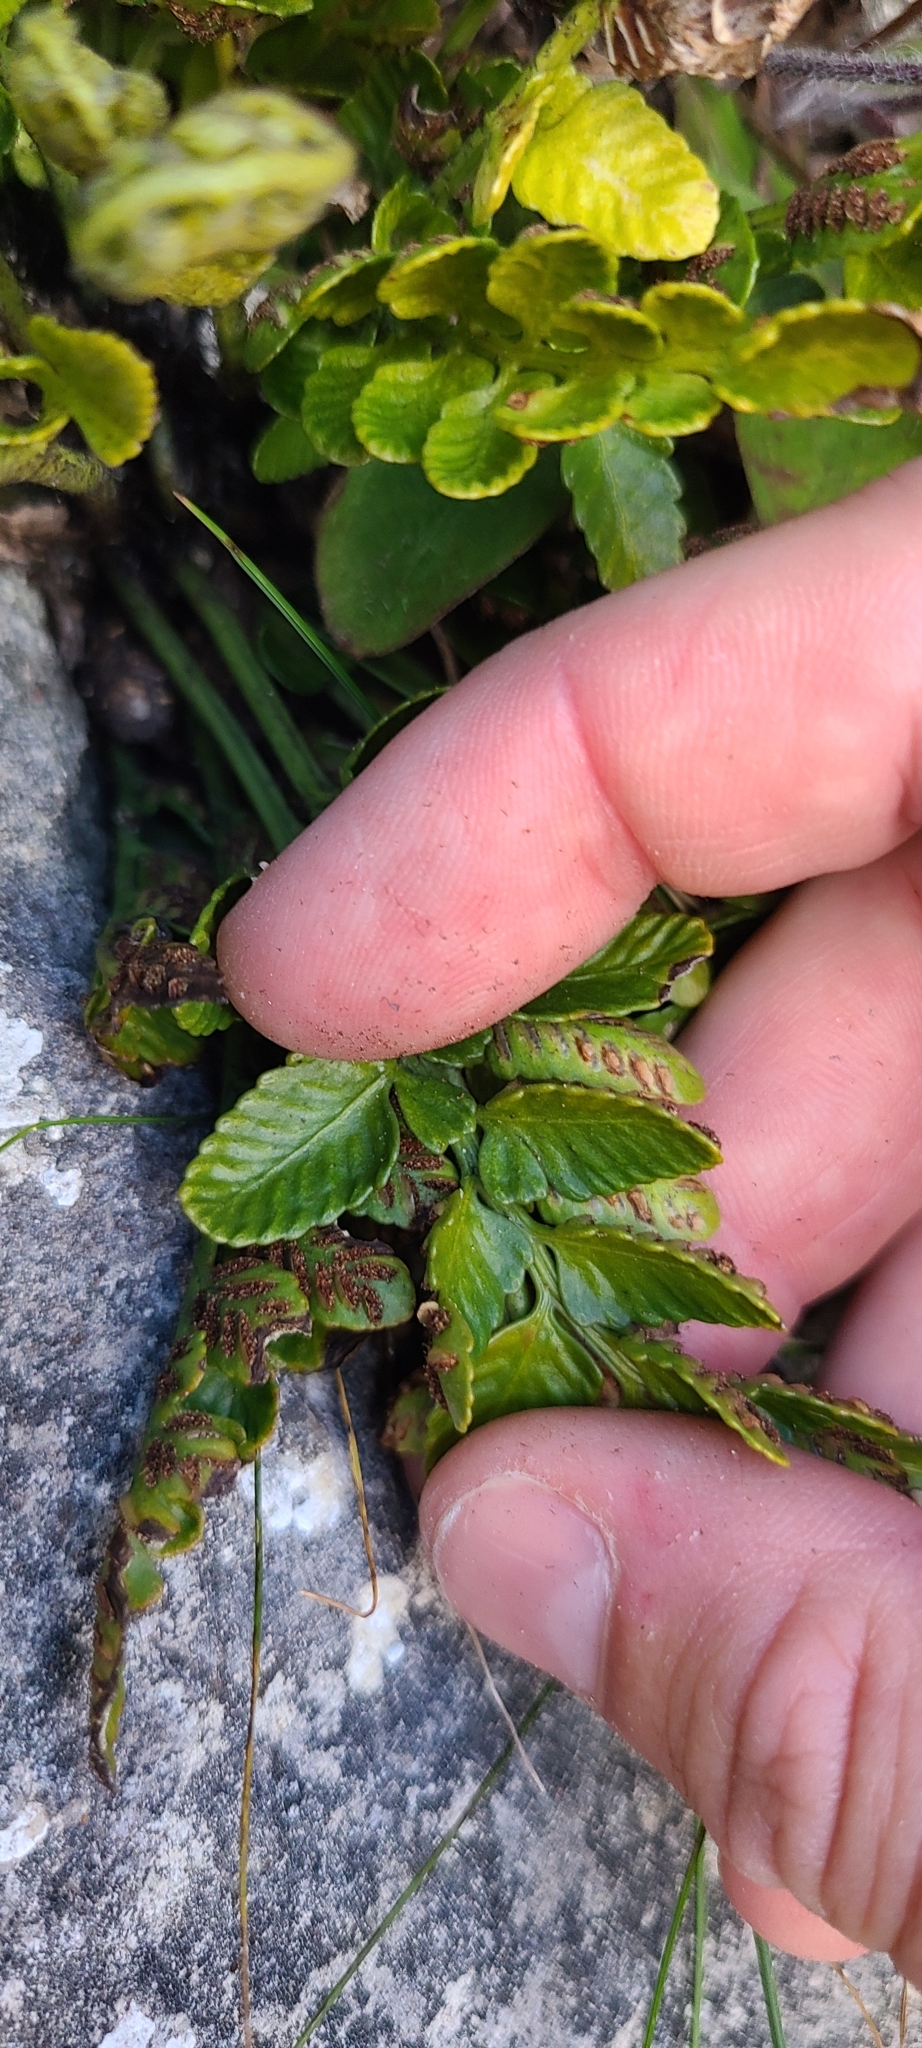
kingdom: Plantae
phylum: Tracheophyta
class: Polypodiopsida
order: Polypodiales
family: Aspleniaceae
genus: Asplenium
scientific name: Asplenium lyallii
